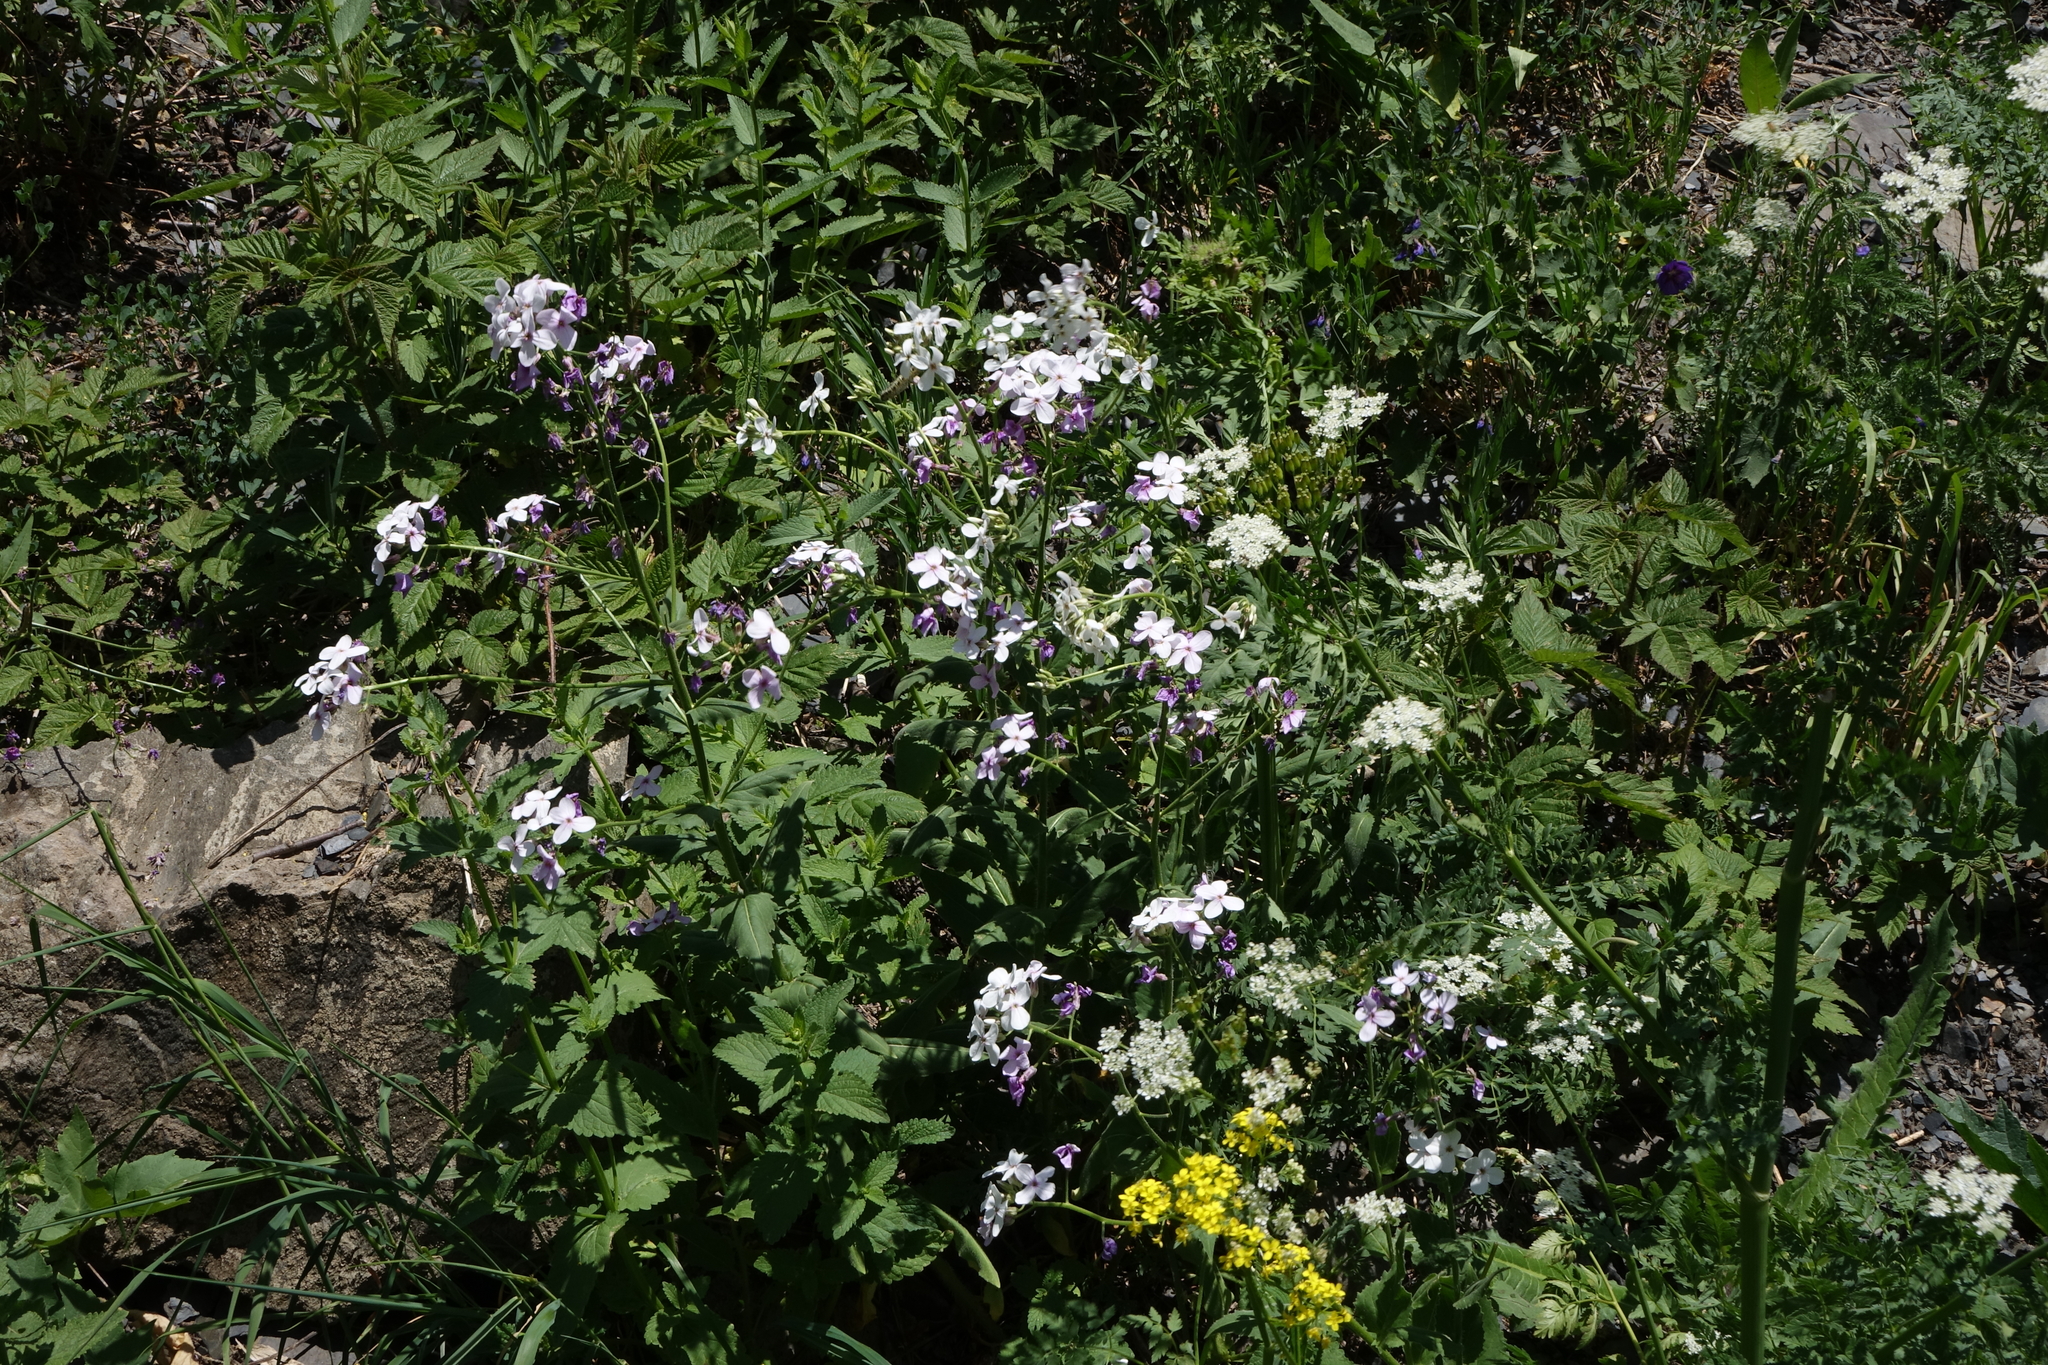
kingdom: Plantae
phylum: Tracheophyta
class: Magnoliopsida
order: Brassicales
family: Brassicaceae
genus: Hesperis
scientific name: Hesperis matronalis
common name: Dame's-violet
